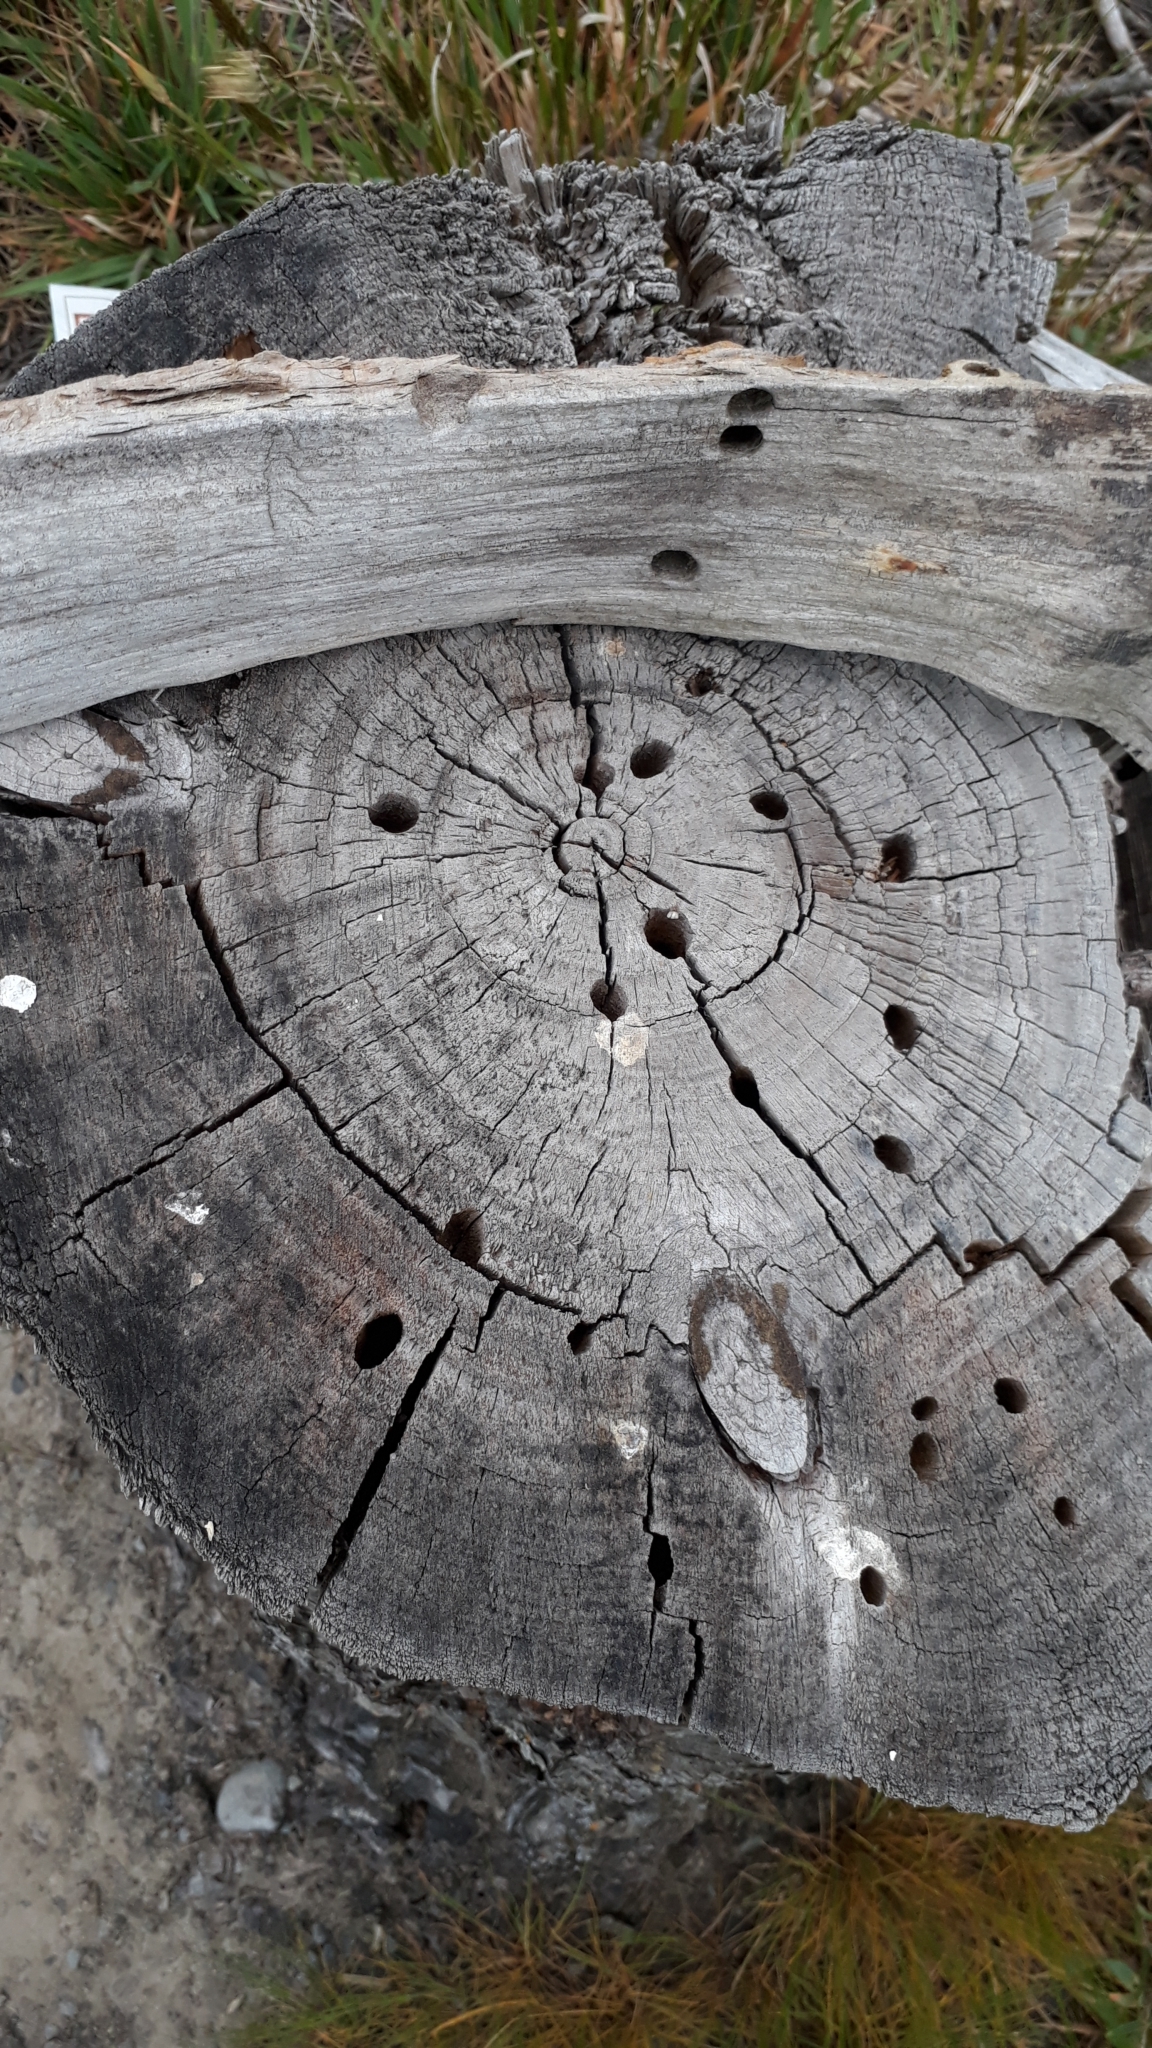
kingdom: Animalia
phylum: Arthropoda
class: Insecta
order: Coleoptera
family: Cerambycidae
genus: Prionoplus
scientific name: Prionoplus reticularis
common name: Huhu beetle
